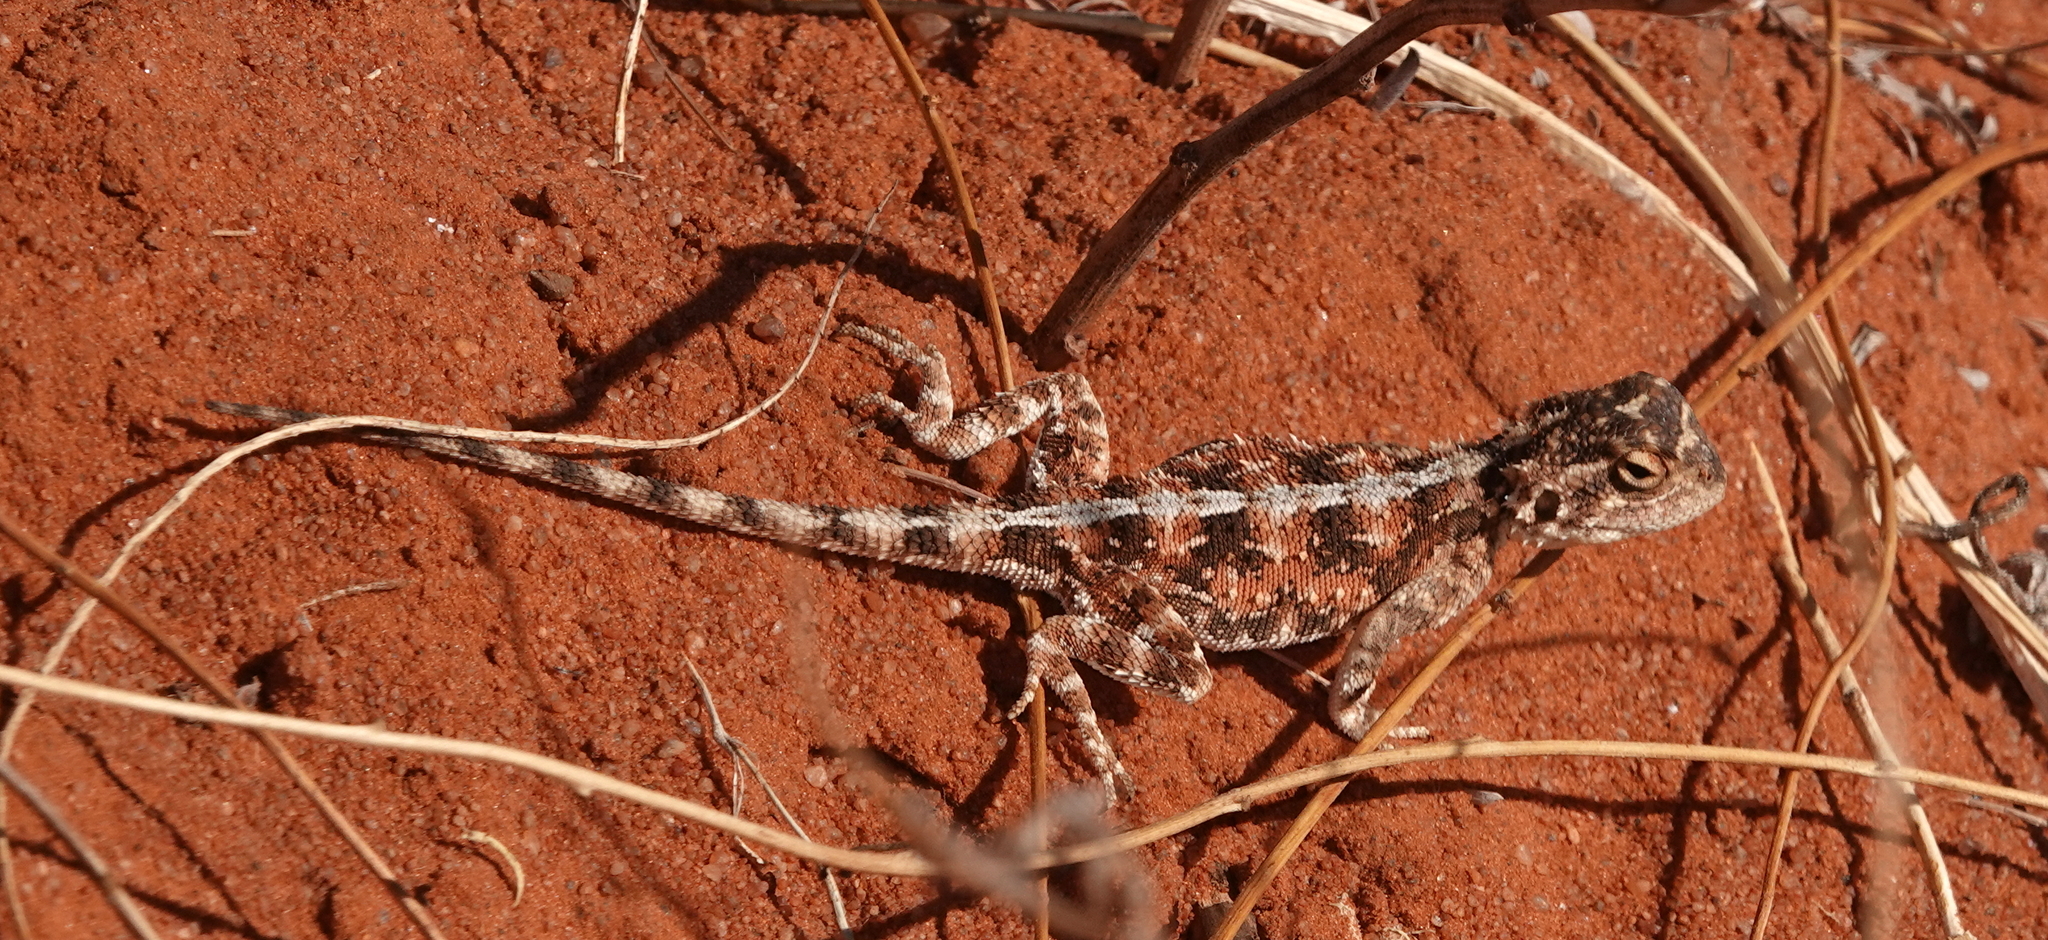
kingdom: Animalia
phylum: Chordata
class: Squamata
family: Agamidae
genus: Agama
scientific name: Agama aculeata
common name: Common ground agama
